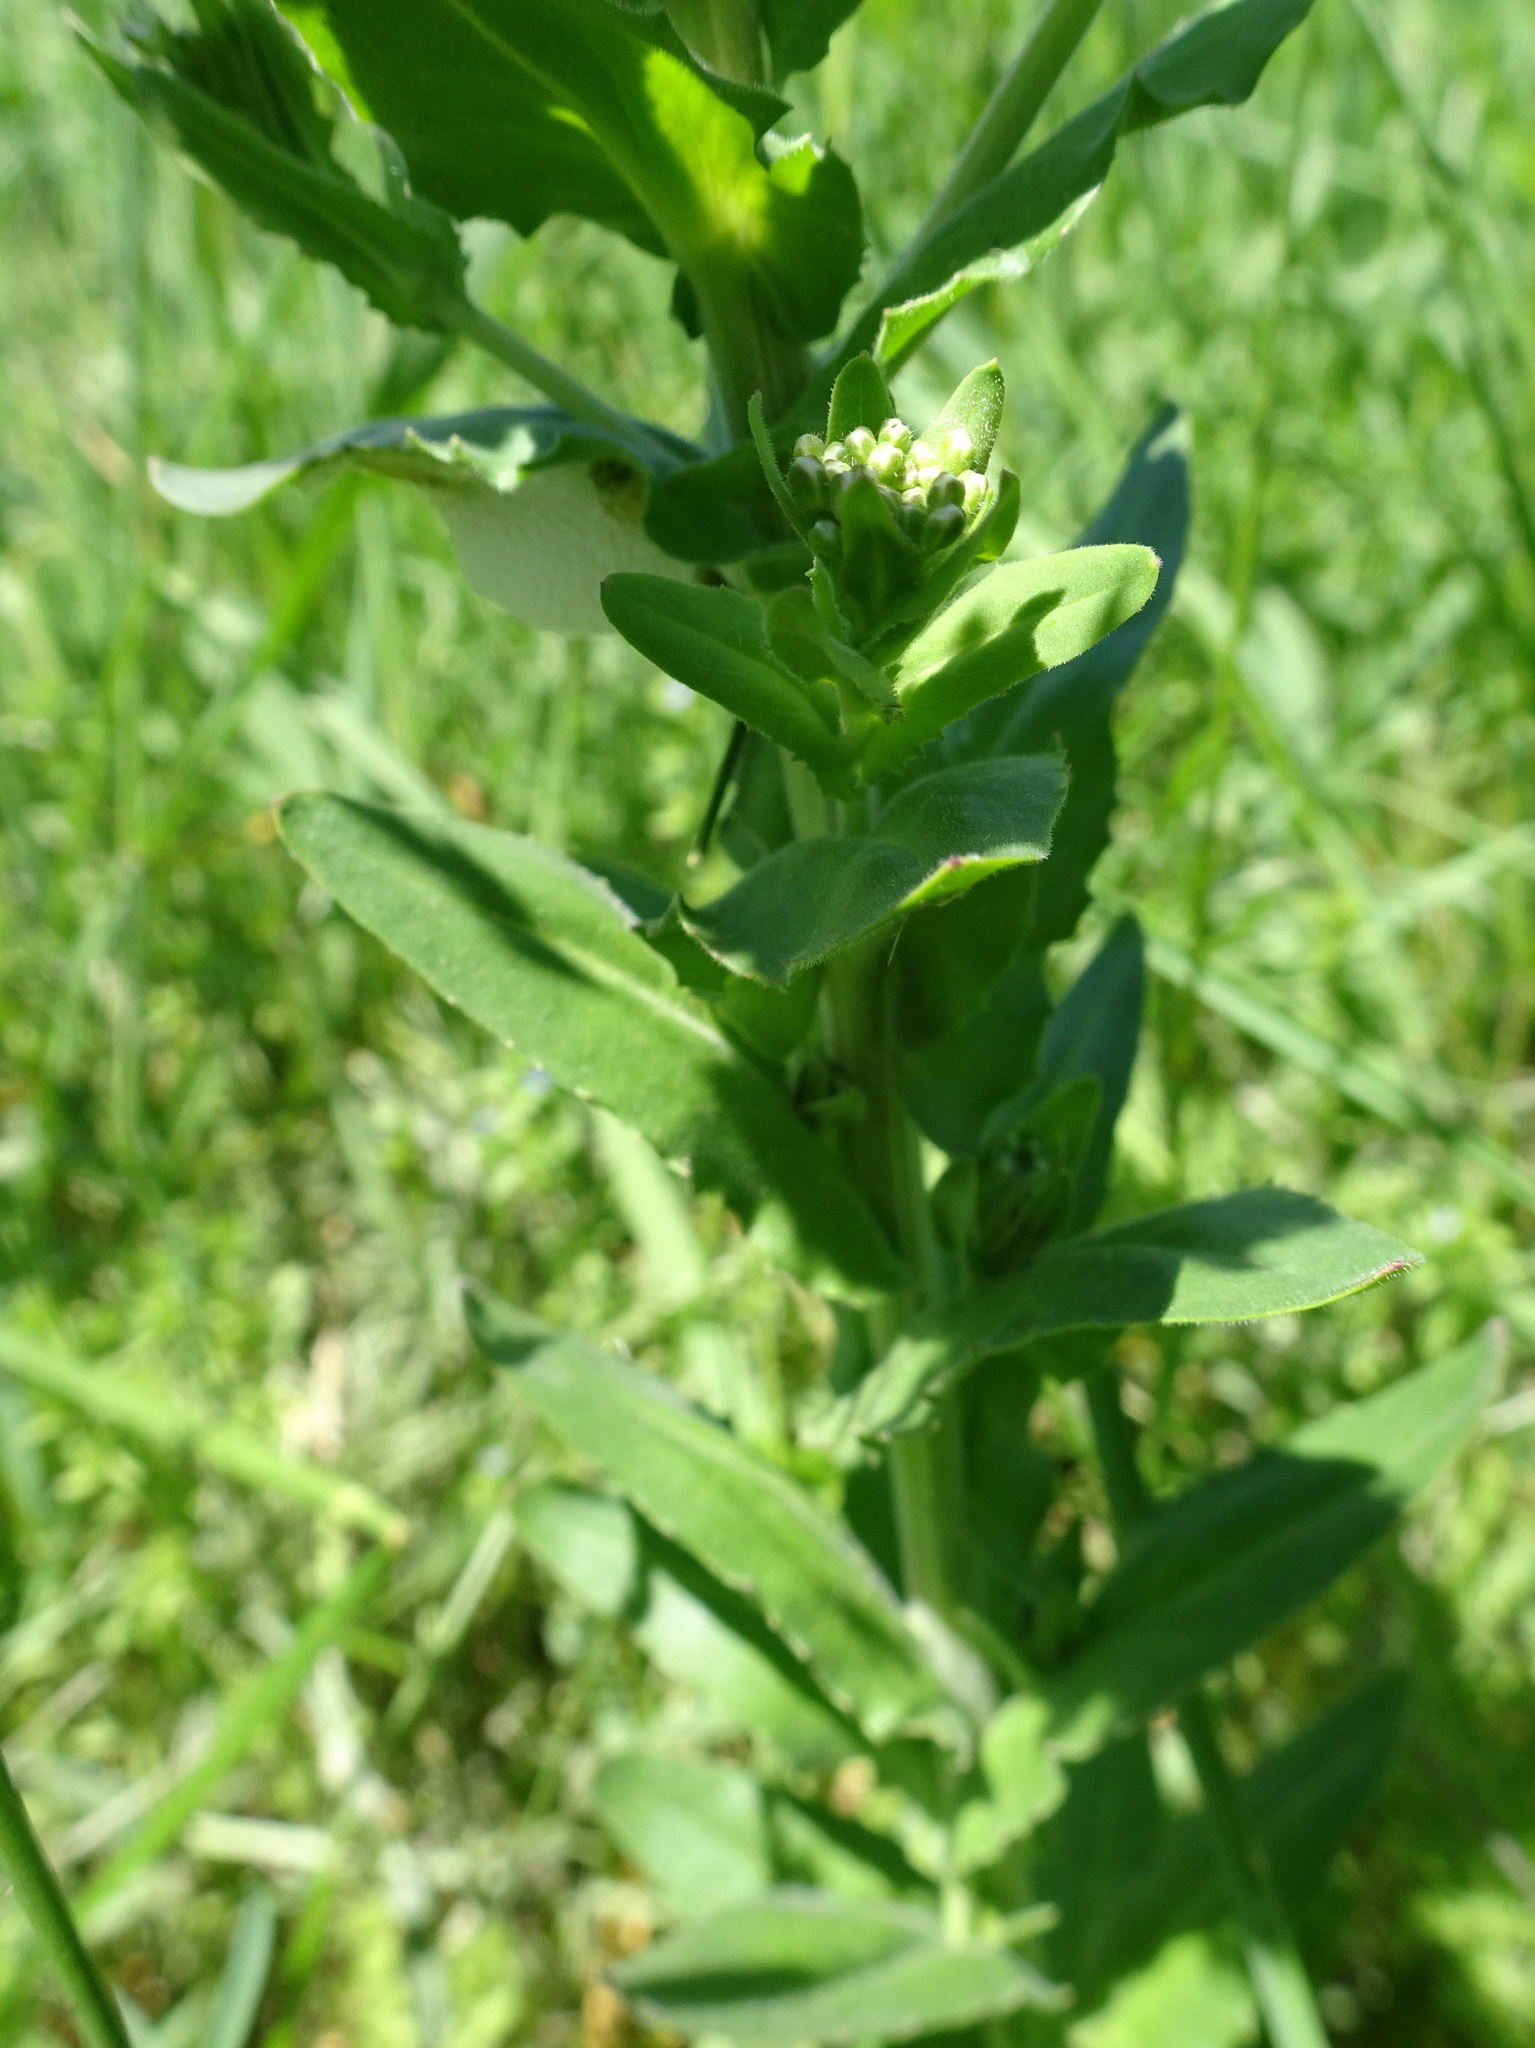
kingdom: Plantae
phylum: Tracheophyta
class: Magnoliopsida
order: Brassicales
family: Brassicaceae
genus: Lepidium
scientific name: Lepidium campestre
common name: Field pepperwort
